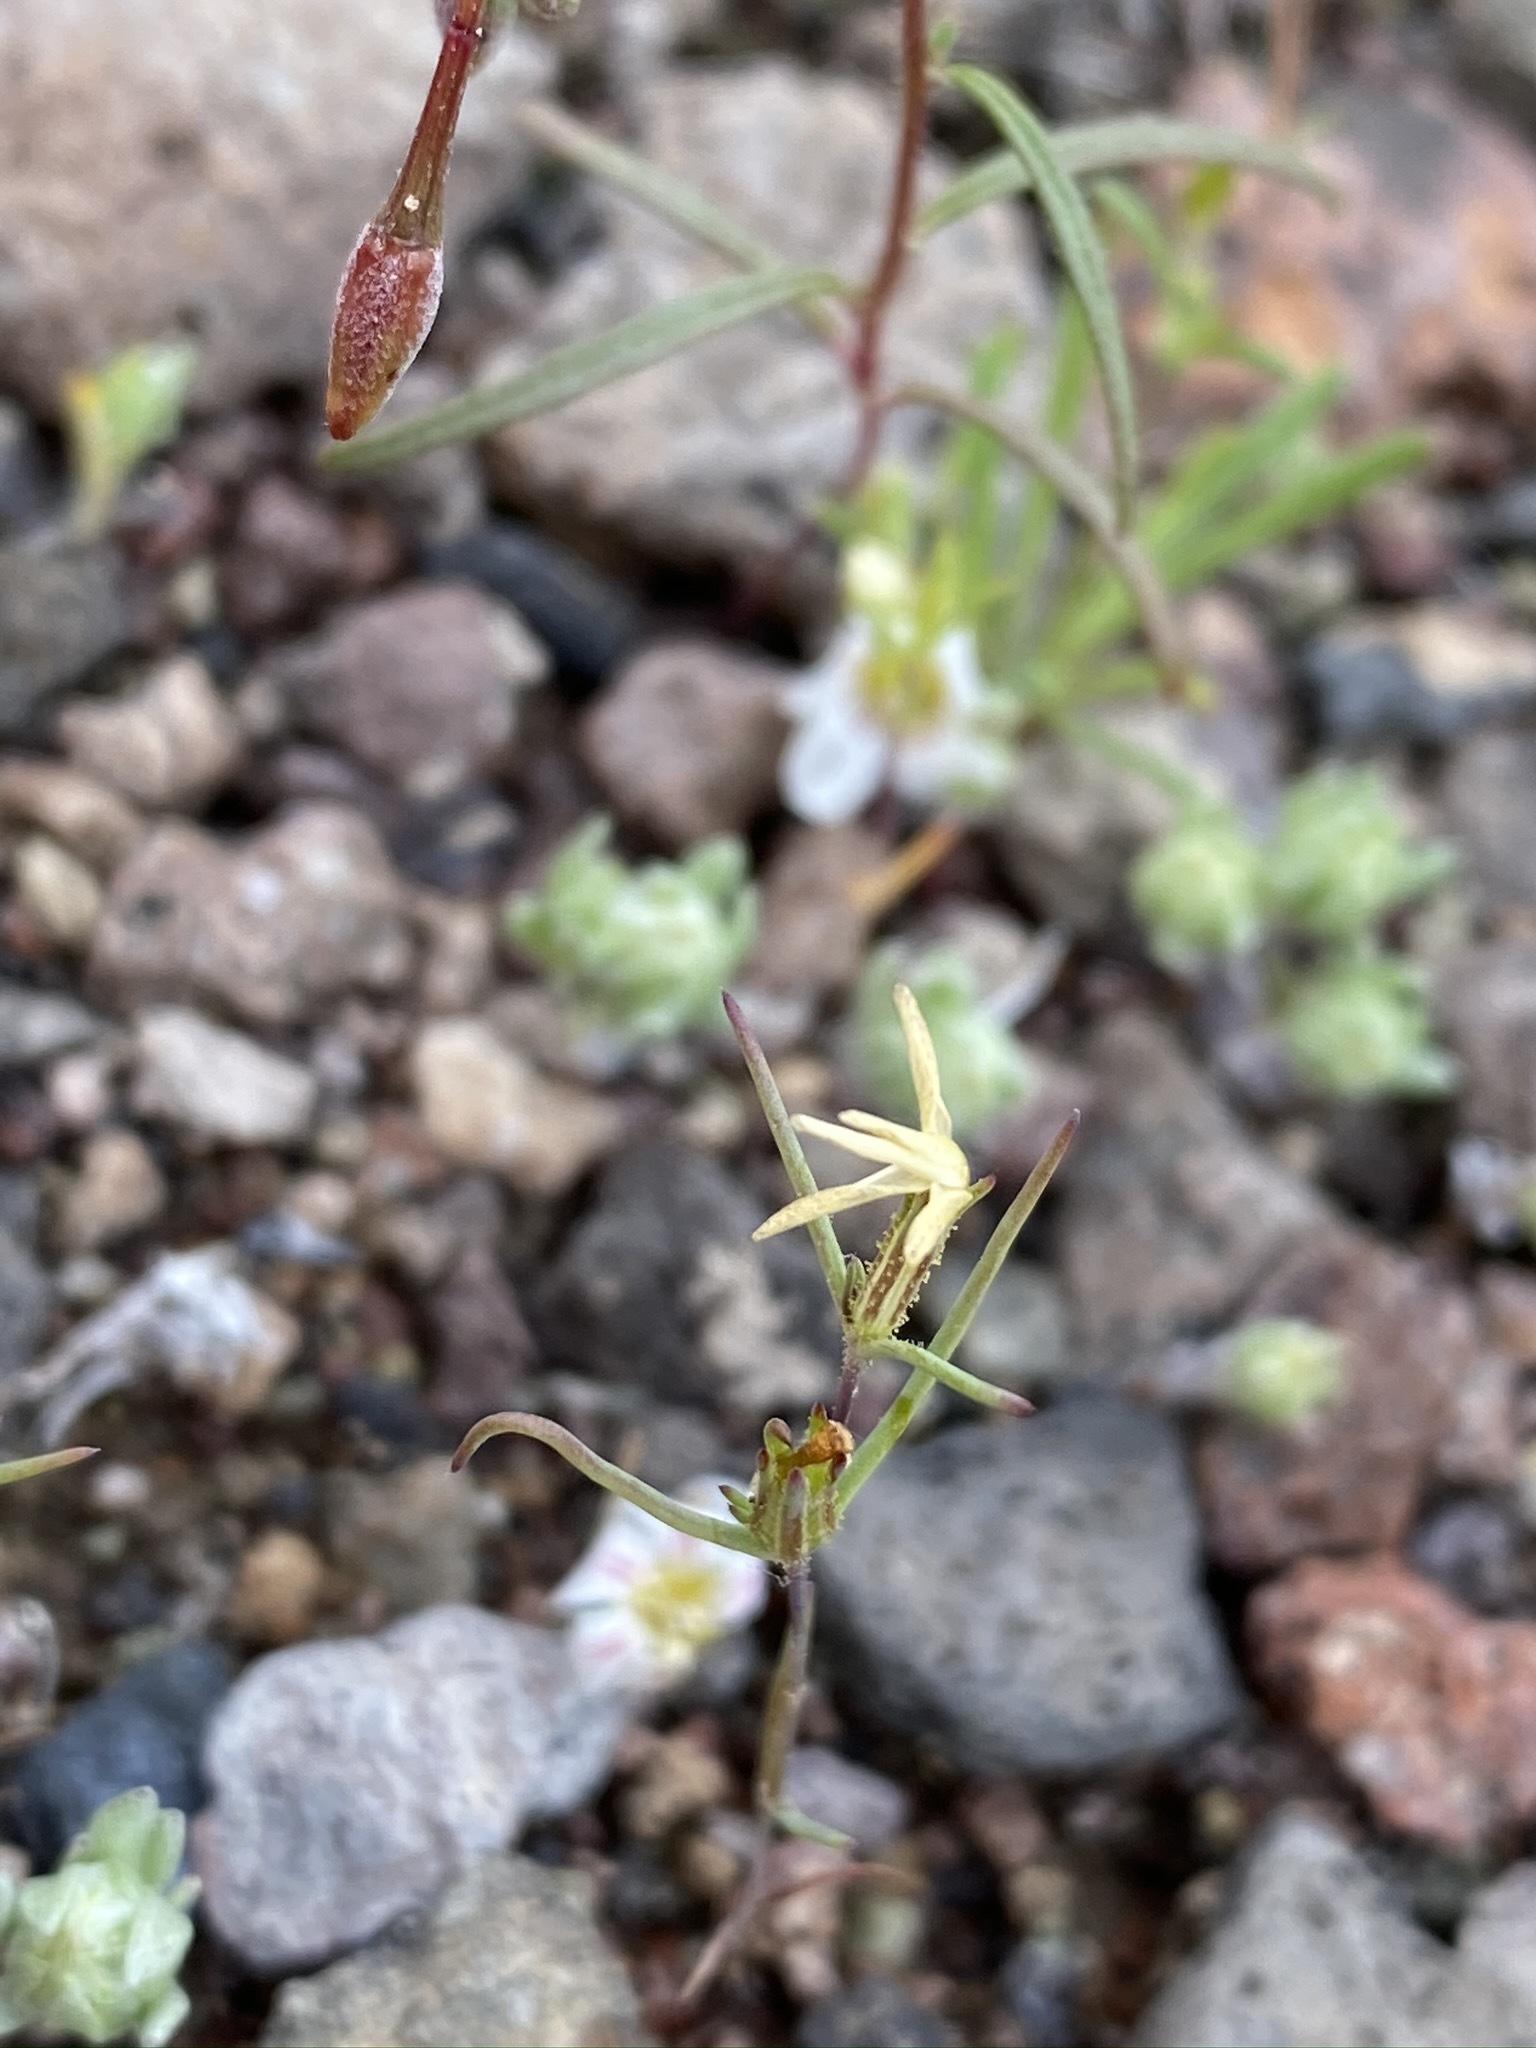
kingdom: Plantae
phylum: Tracheophyta
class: Magnoliopsida
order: Ericales
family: Polemoniaceae
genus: Linanthus
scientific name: Linanthus jonesii
